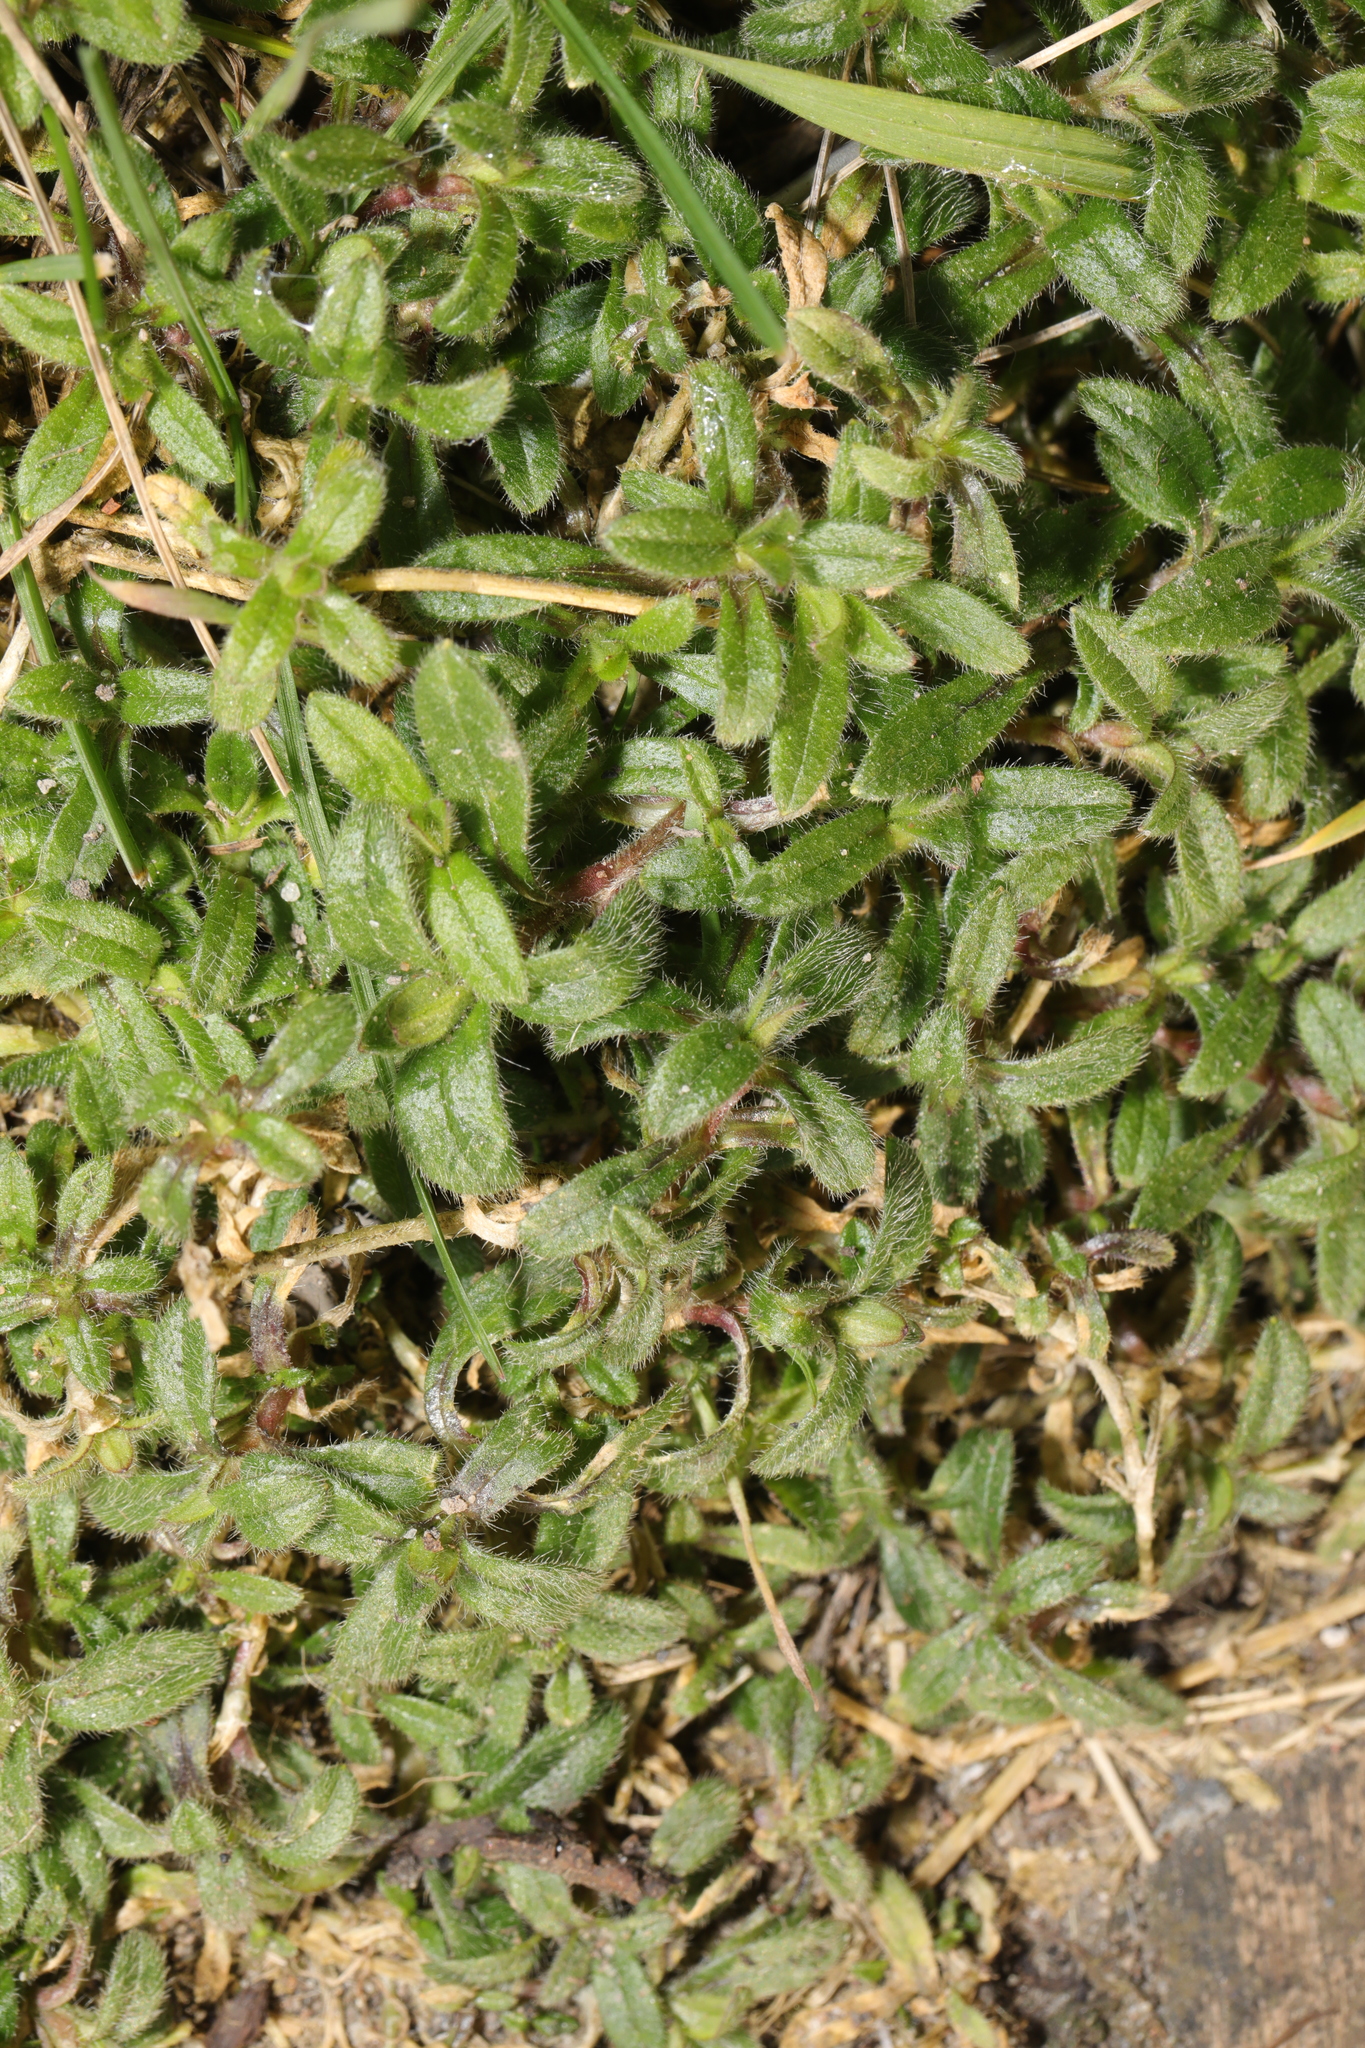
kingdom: Plantae
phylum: Tracheophyta
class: Magnoliopsida
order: Caryophyllales
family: Caryophyllaceae
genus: Cerastium
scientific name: Cerastium fontanum
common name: Common mouse-ear
